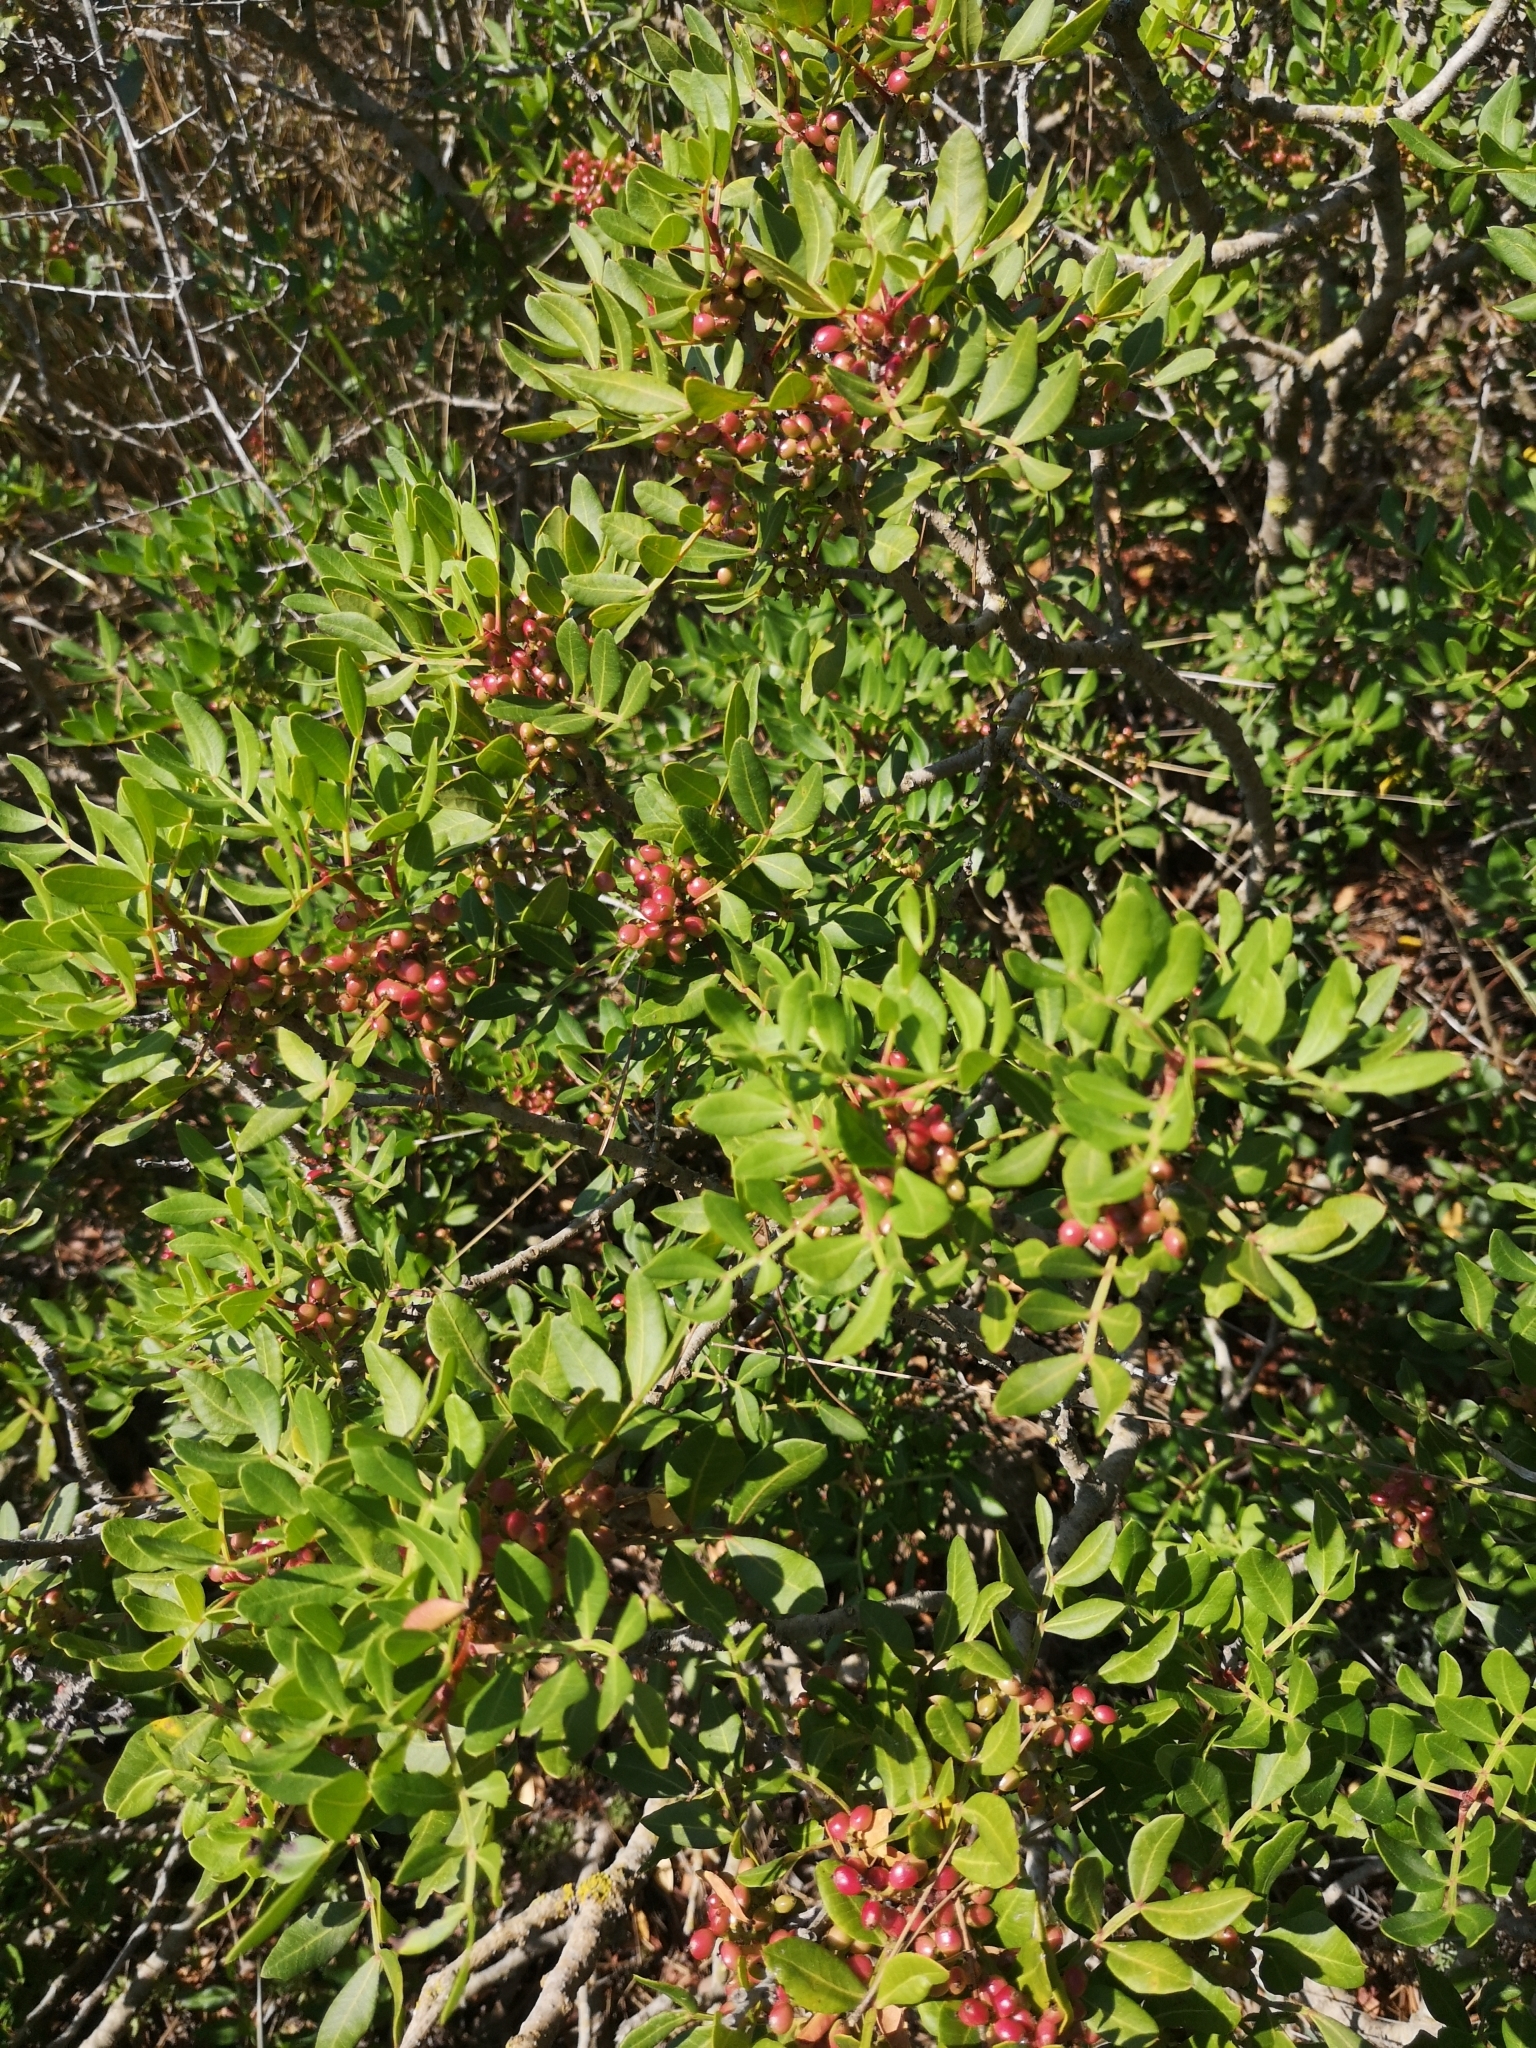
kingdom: Plantae
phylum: Tracheophyta
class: Magnoliopsida
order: Sapindales
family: Anacardiaceae
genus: Pistacia
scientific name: Pistacia lentiscus
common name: Lentisk
